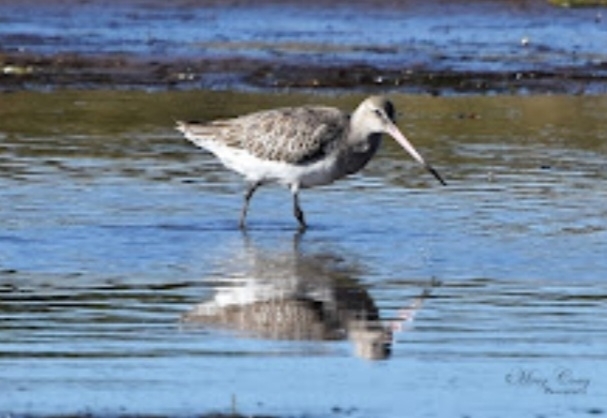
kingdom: Animalia
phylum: Chordata
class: Aves
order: Charadriiformes
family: Scolopacidae
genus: Limosa
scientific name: Limosa lapponica
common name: Bar-tailed godwit
